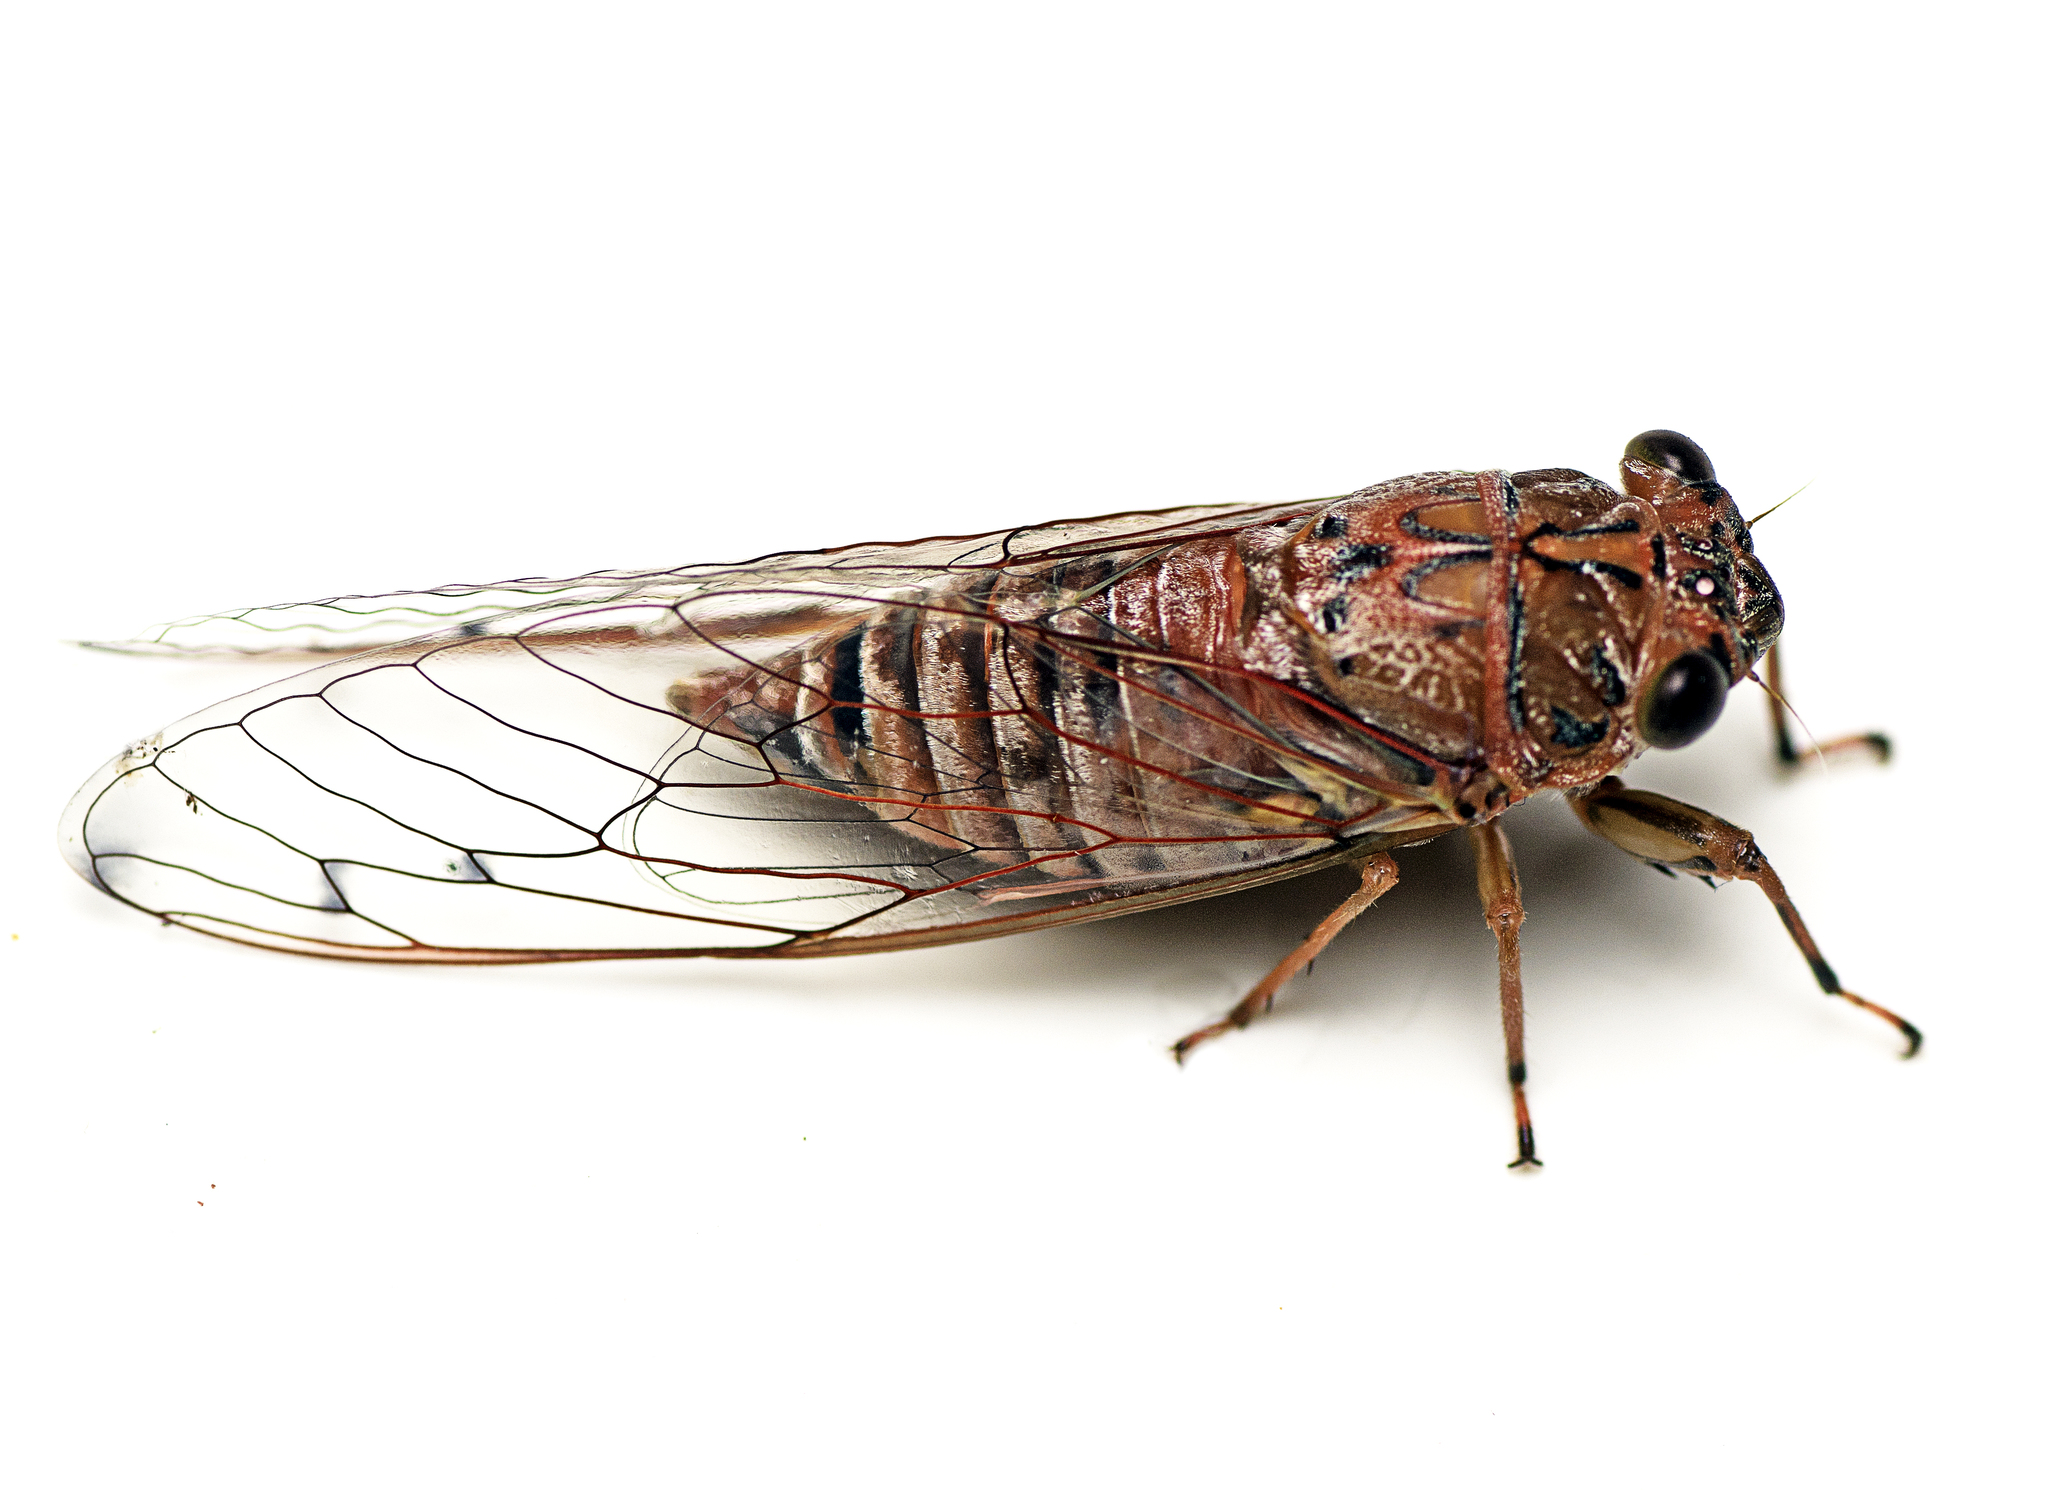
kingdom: Animalia
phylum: Arthropoda
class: Insecta
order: Hemiptera
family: Cicadidae
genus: Tamasa
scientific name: Tamasa tristigma
